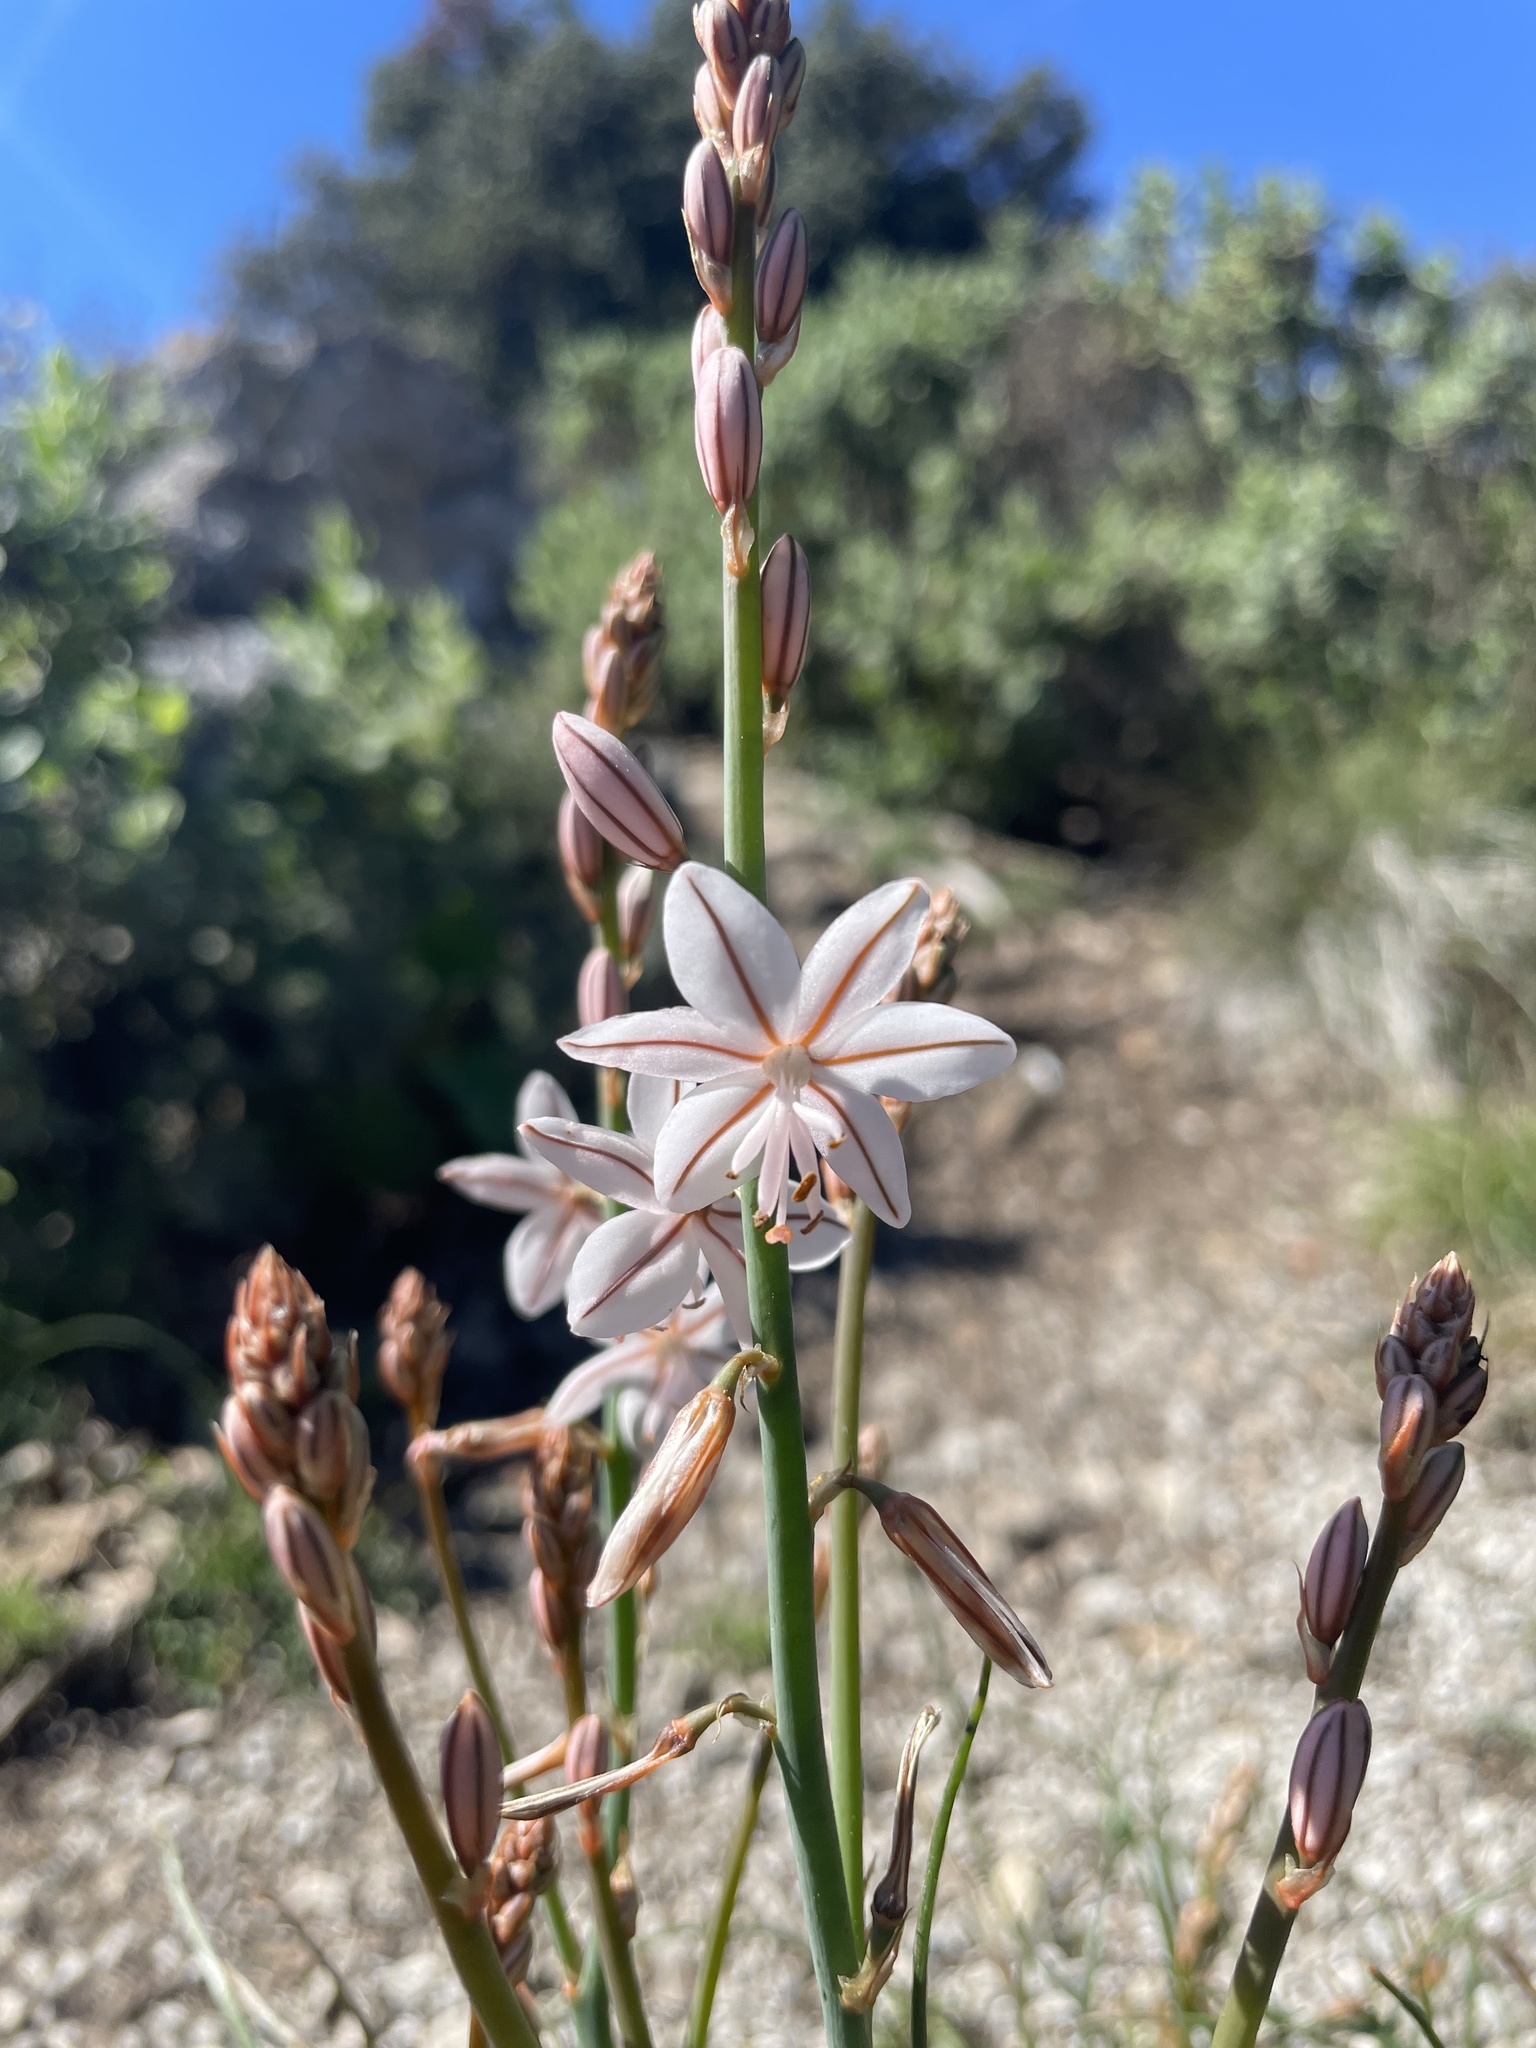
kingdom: Plantae
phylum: Tracheophyta
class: Liliopsida
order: Asparagales
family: Asphodelaceae
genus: Asphodelus
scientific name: Asphodelus fistulosus
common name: Onionweed
